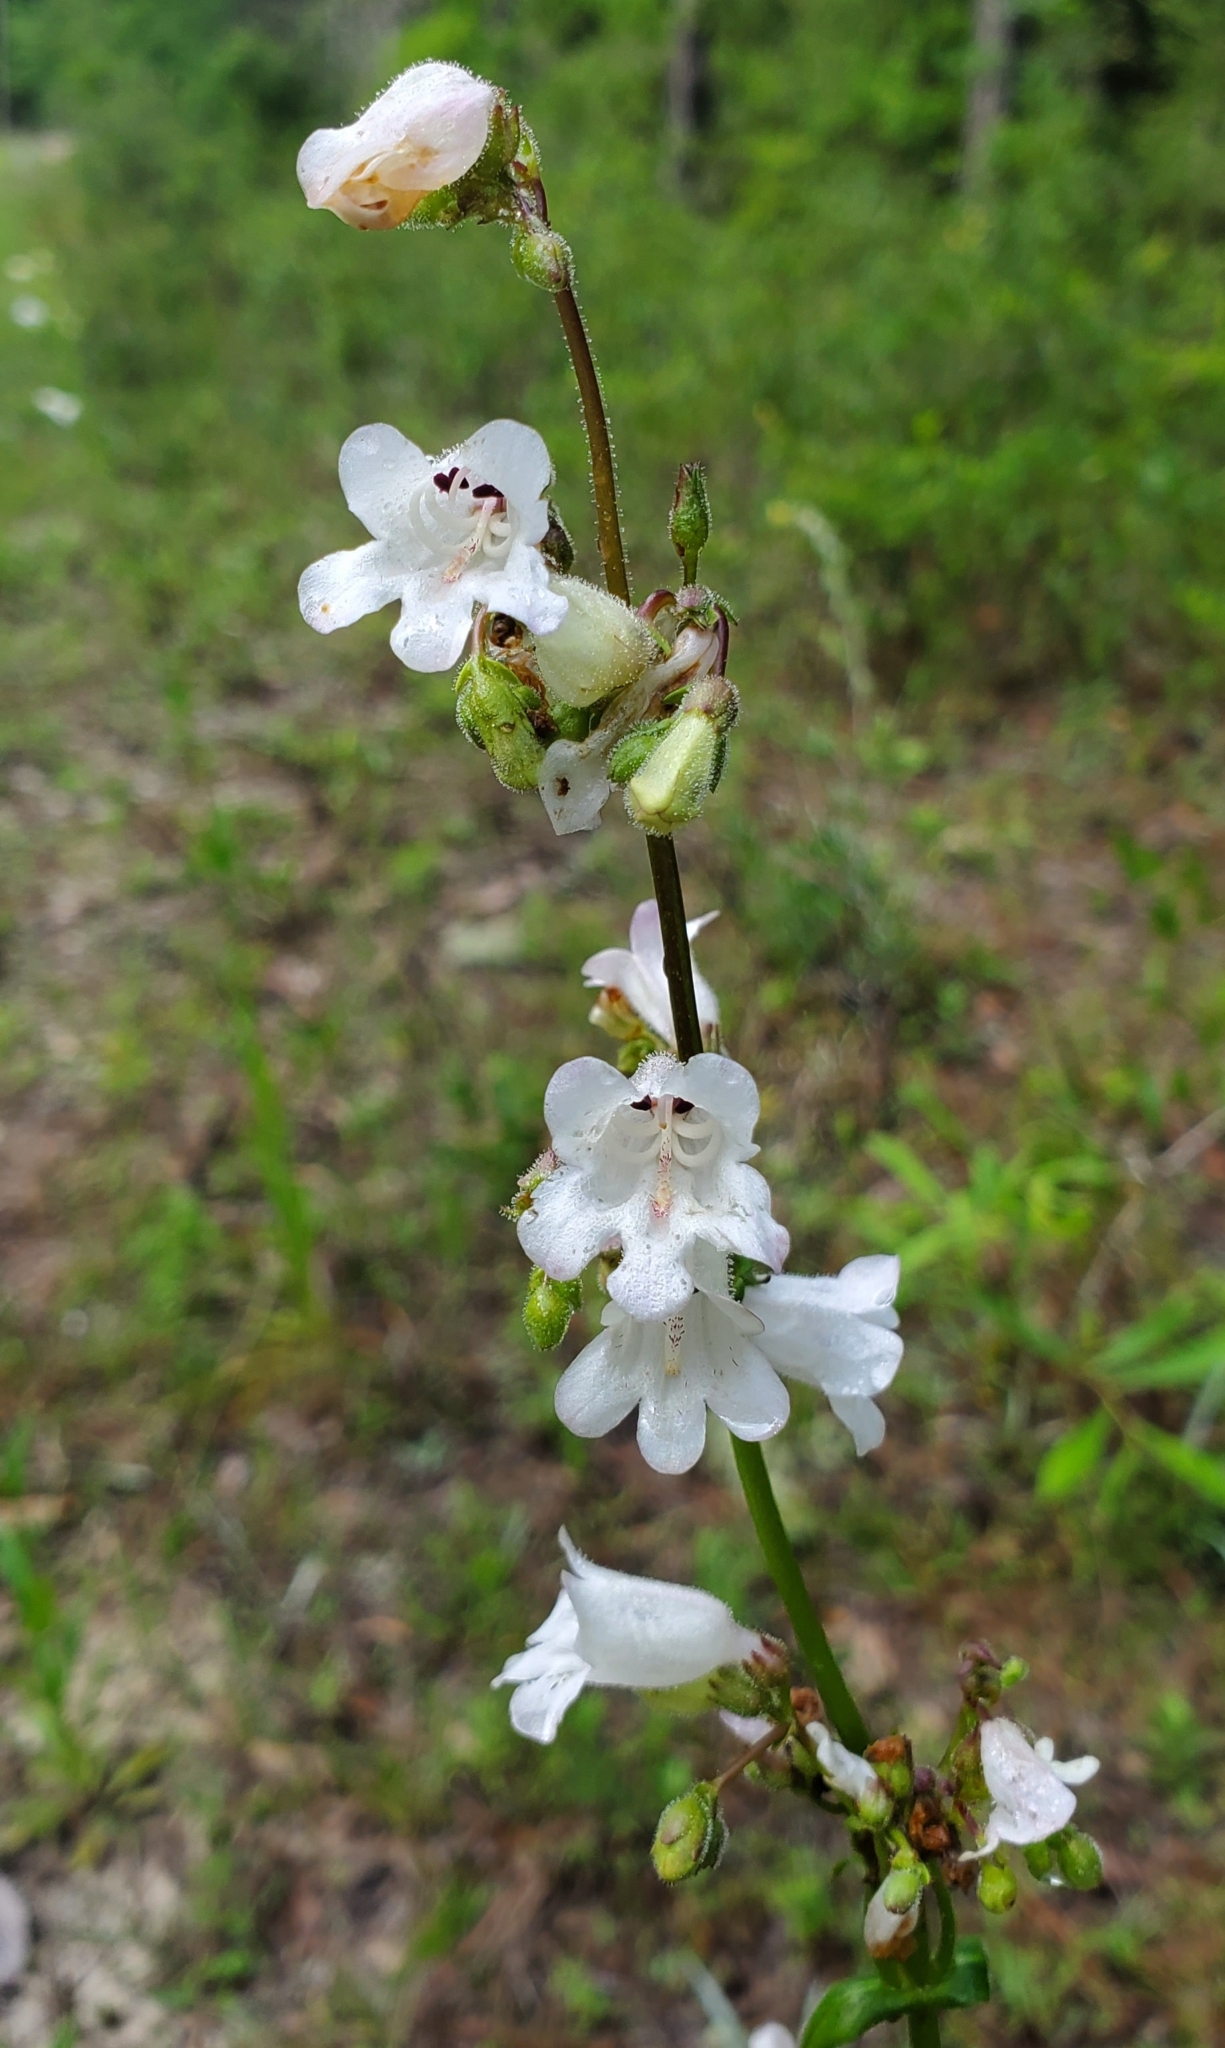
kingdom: Plantae
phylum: Tracheophyta
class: Magnoliopsida
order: Lamiales
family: Plantaginaceae
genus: Penstemon
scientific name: Penstemon multiflorus
